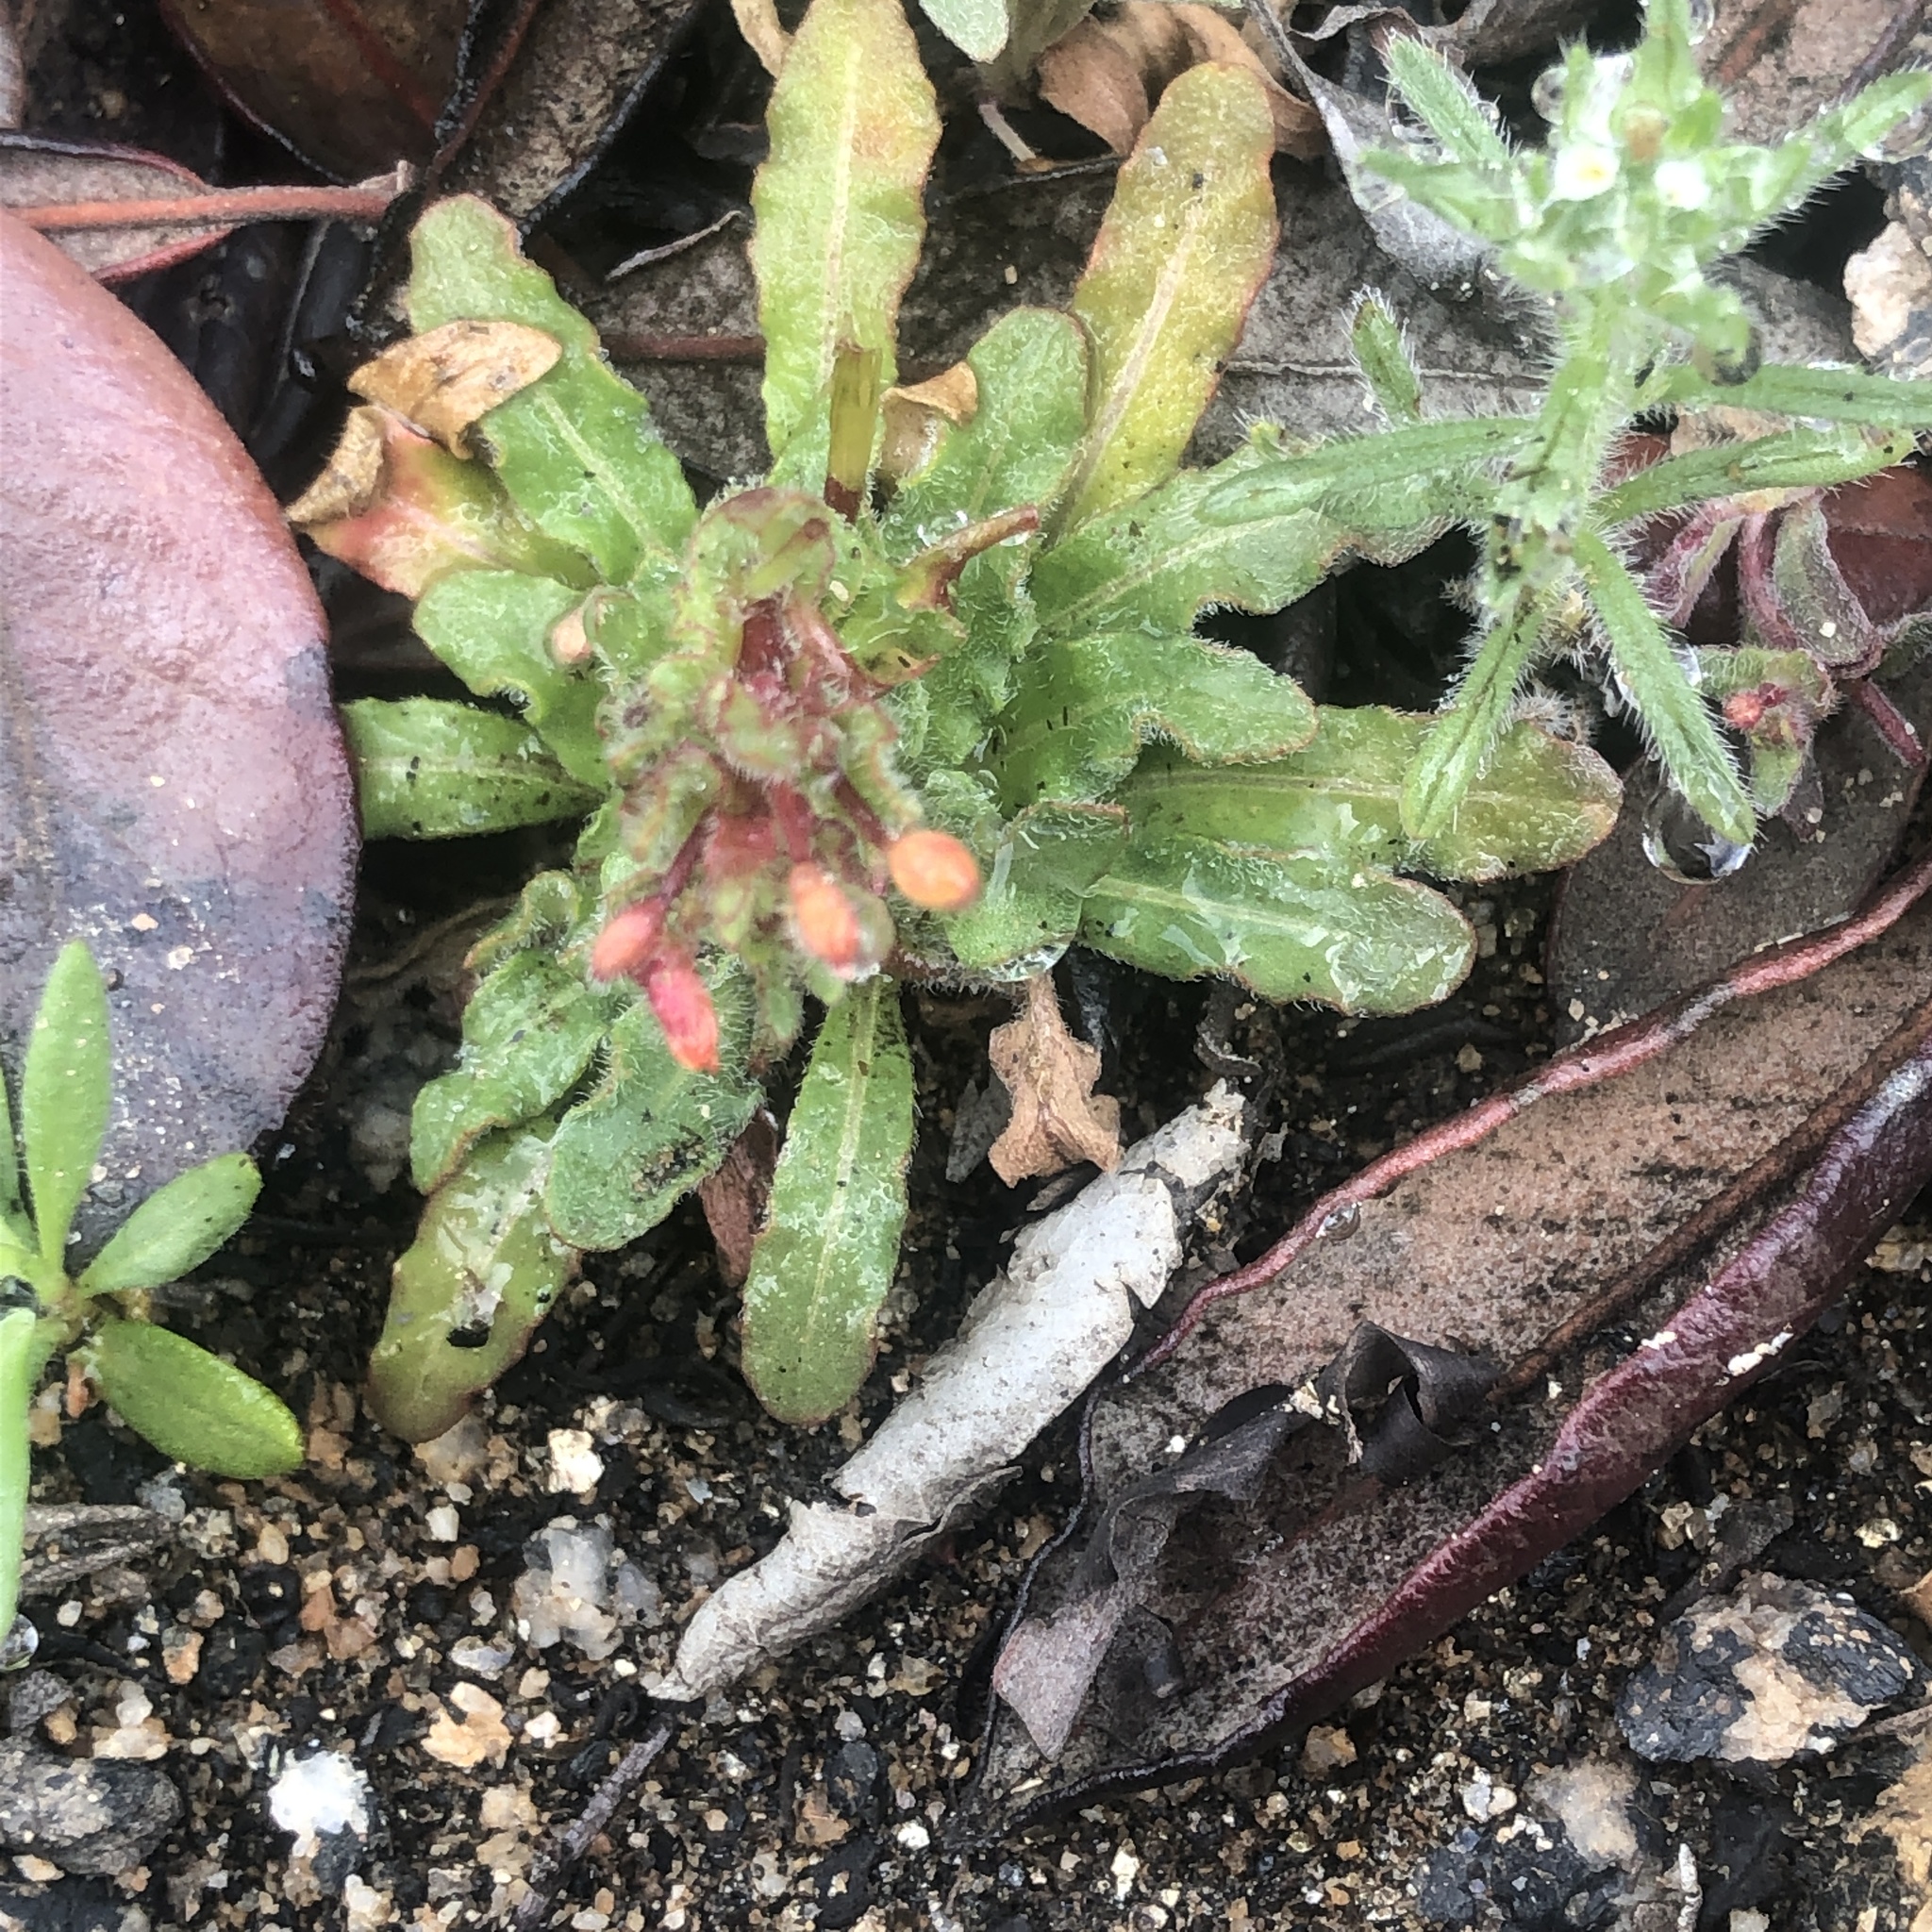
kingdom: Plantae
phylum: Tracheophyta
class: Magnoliopsida
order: Myrtales
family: Onagraceae
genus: Camissoniopsis
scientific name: Camissoniopsis micrantha
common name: Miniature suncup
